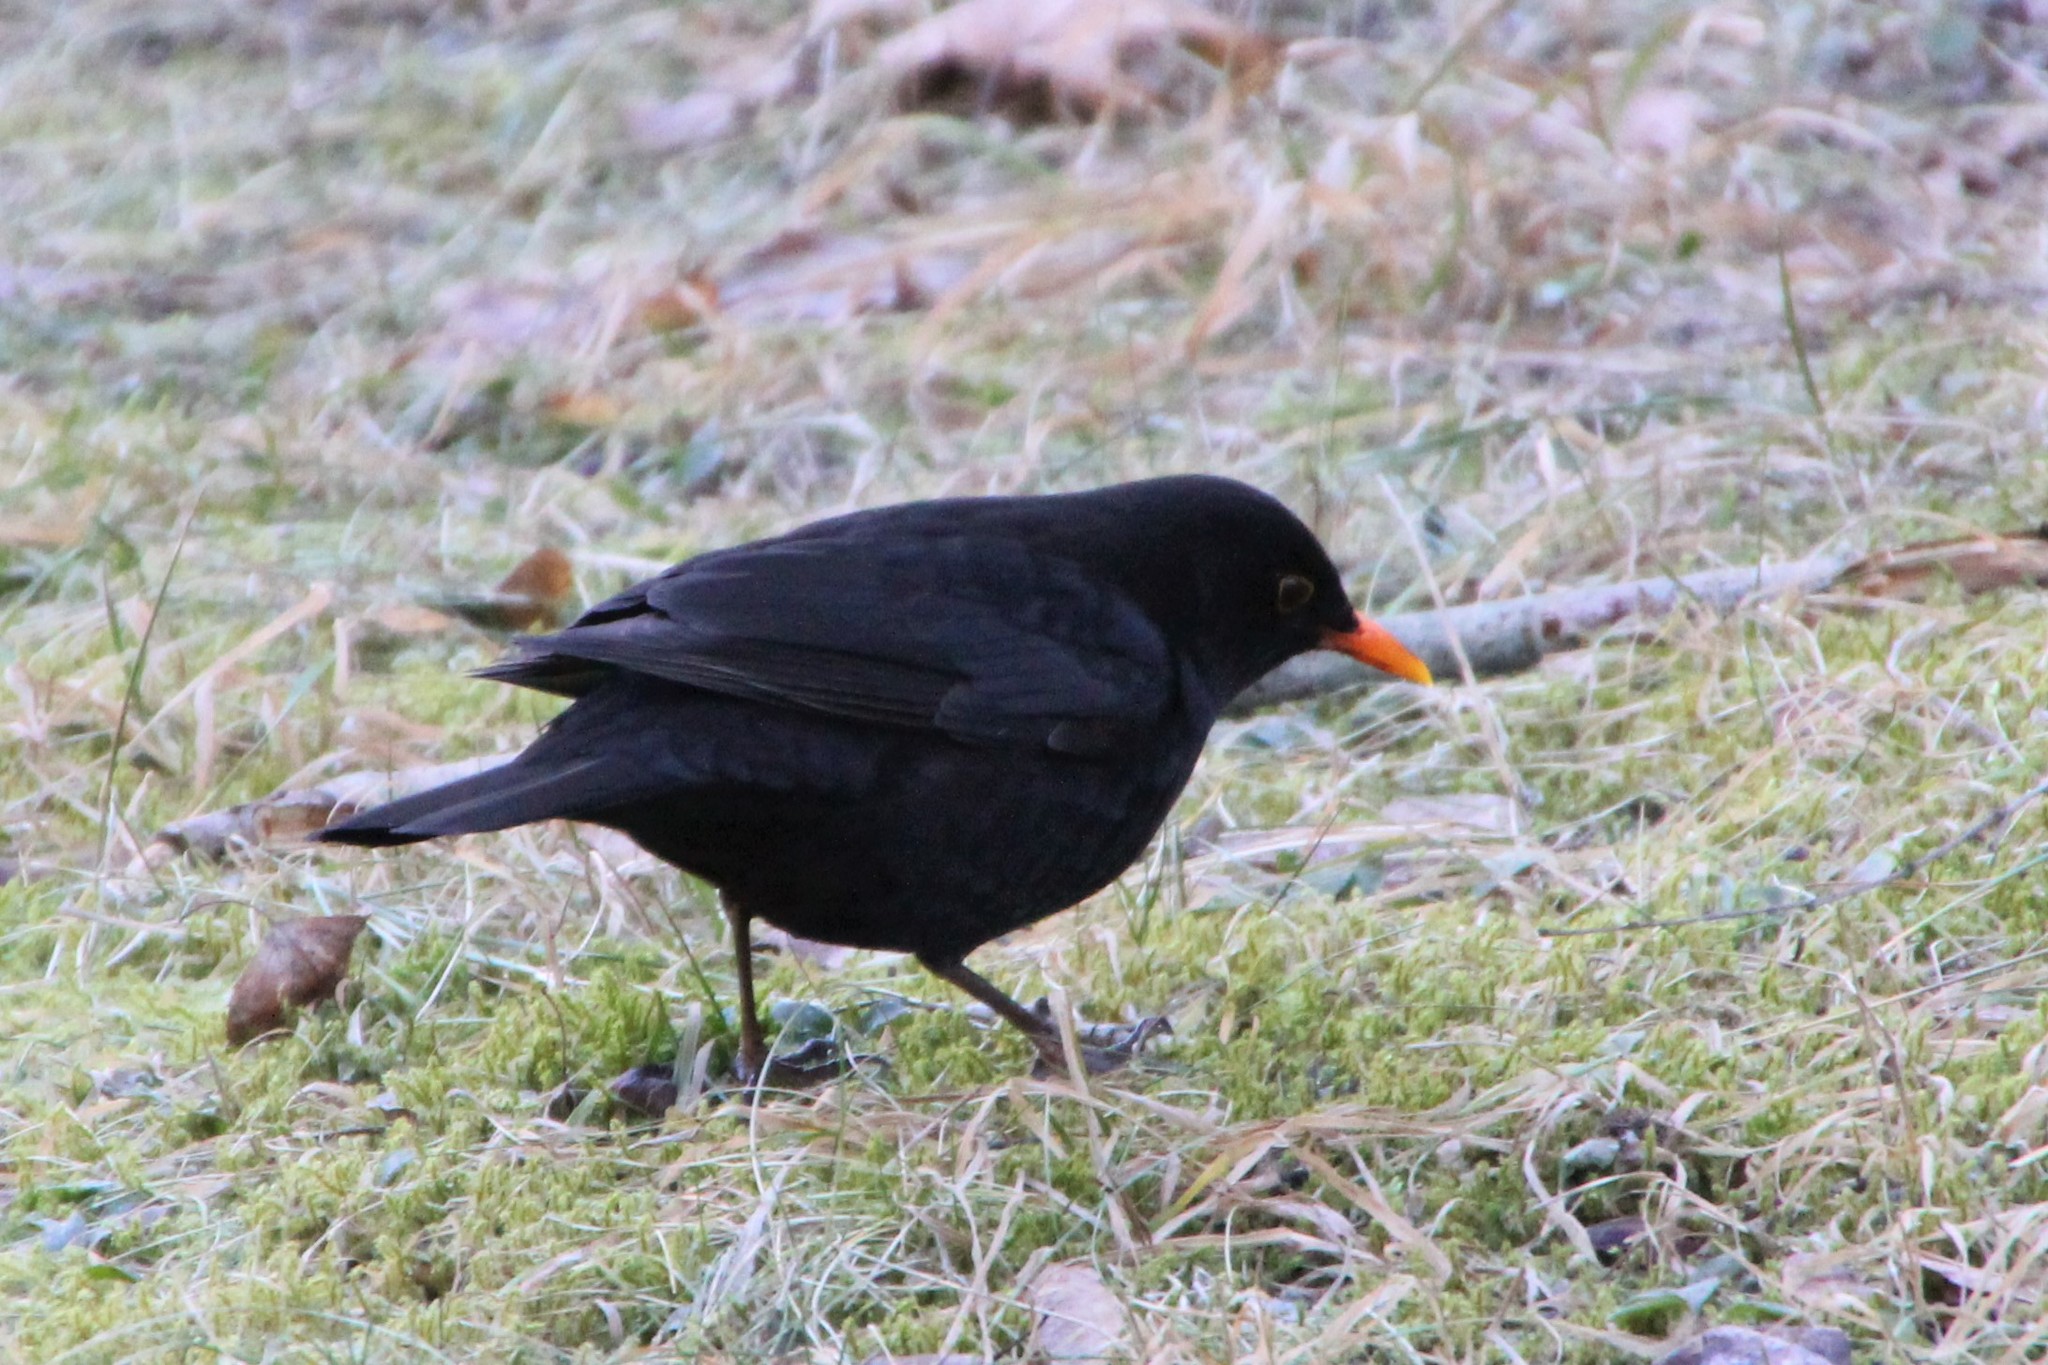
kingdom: Animalia
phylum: Chordata
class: Aves
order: Passeriformes
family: Turdidae
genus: Turdus
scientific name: Turdus merula
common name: Common blackbird
